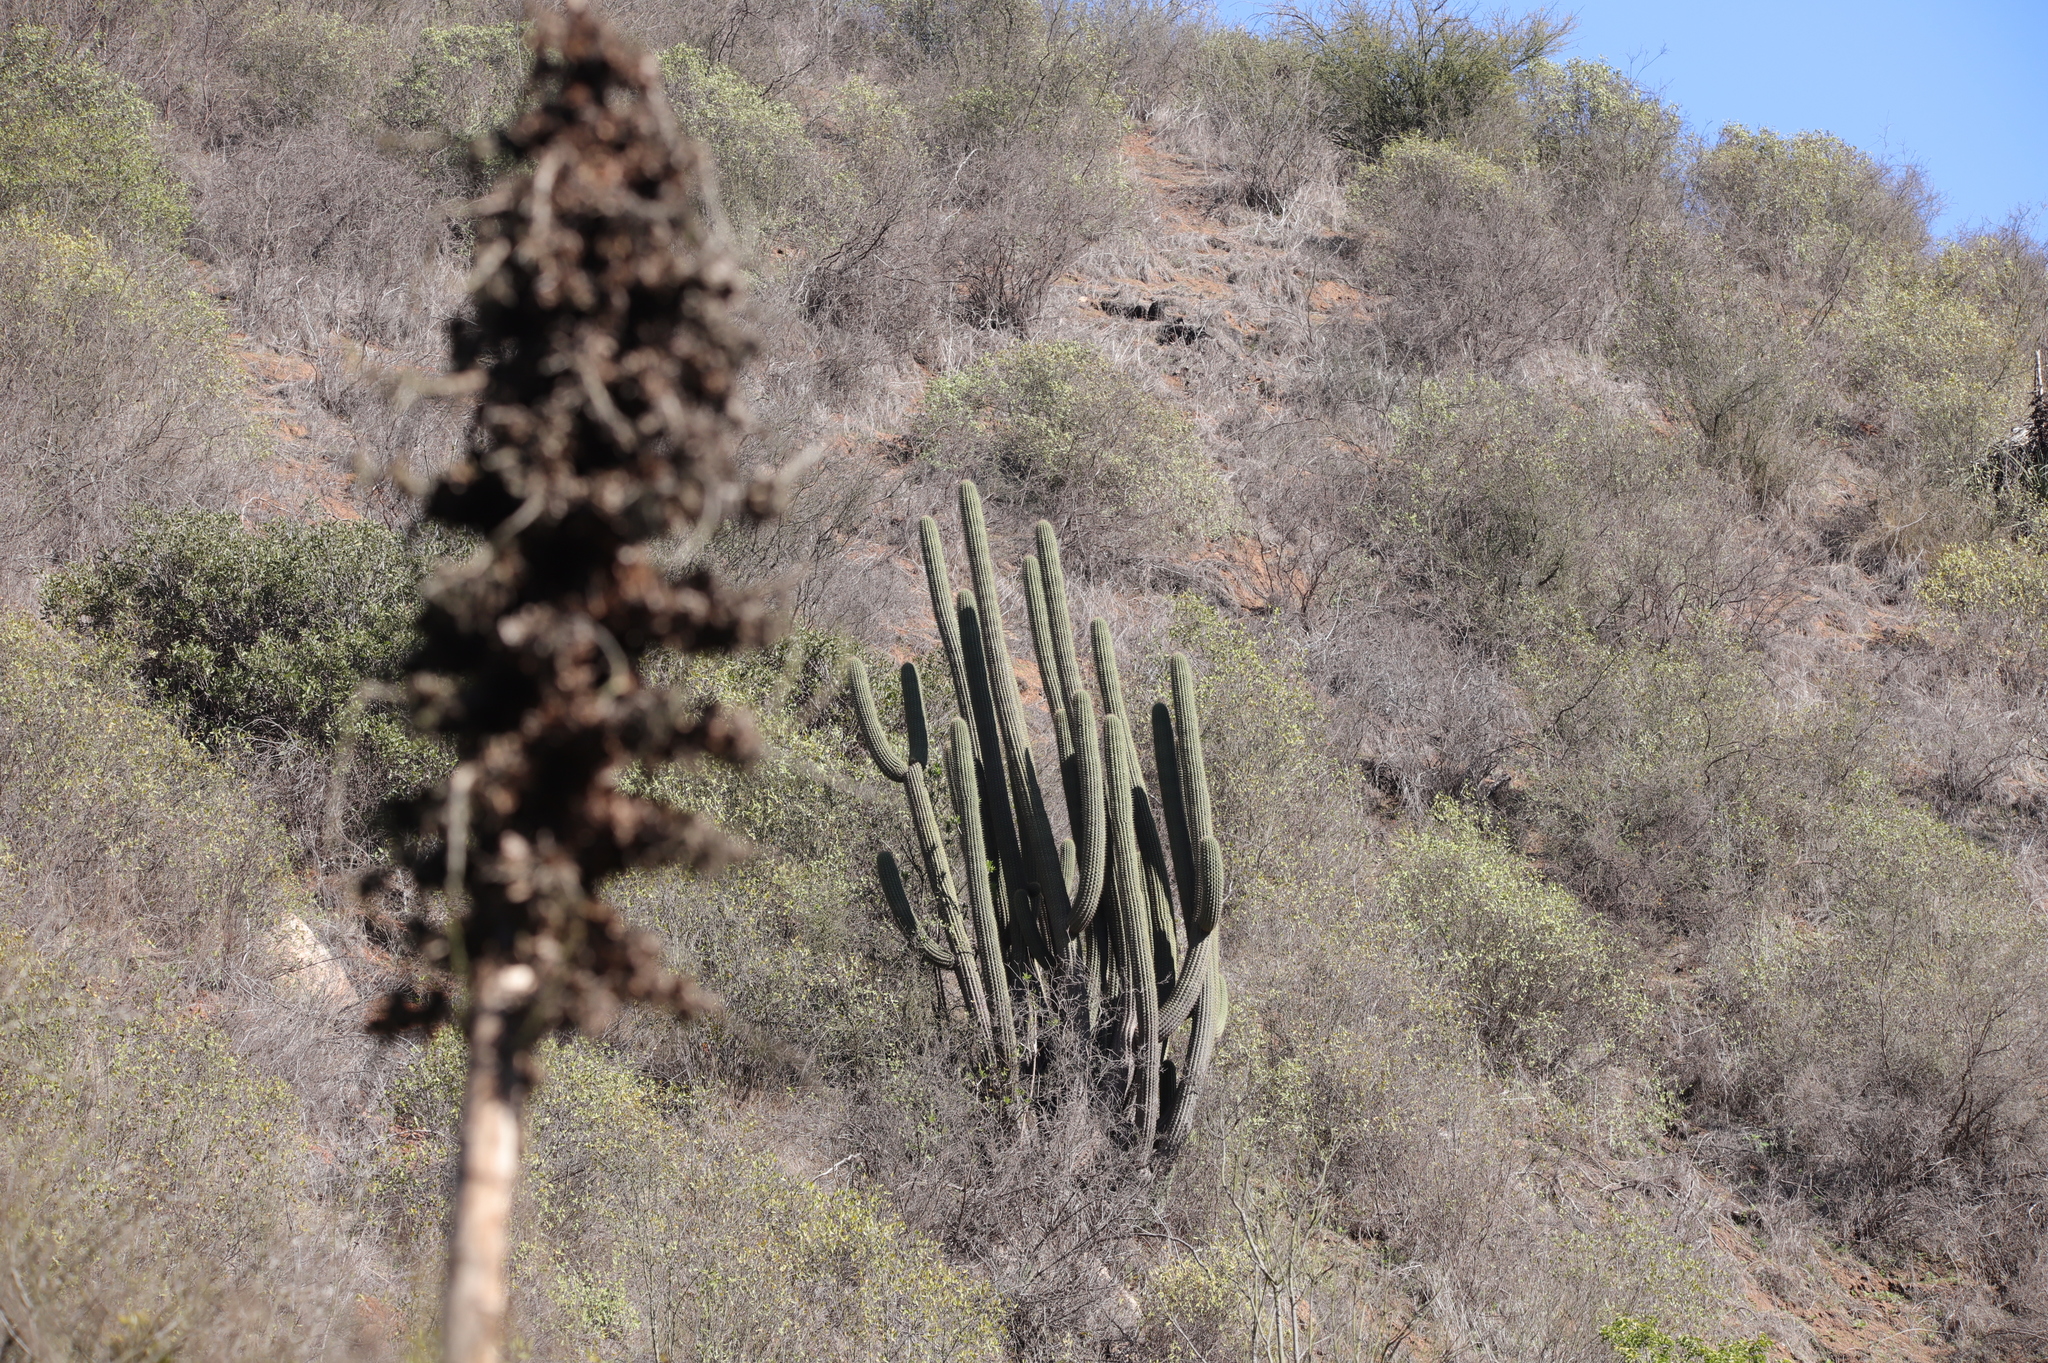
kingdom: Plantae
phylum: Tracheophyta
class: Magnoliopsida
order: Caryophyllales
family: Cactaceae
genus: Leucostele
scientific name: Leucostele chiloensis
